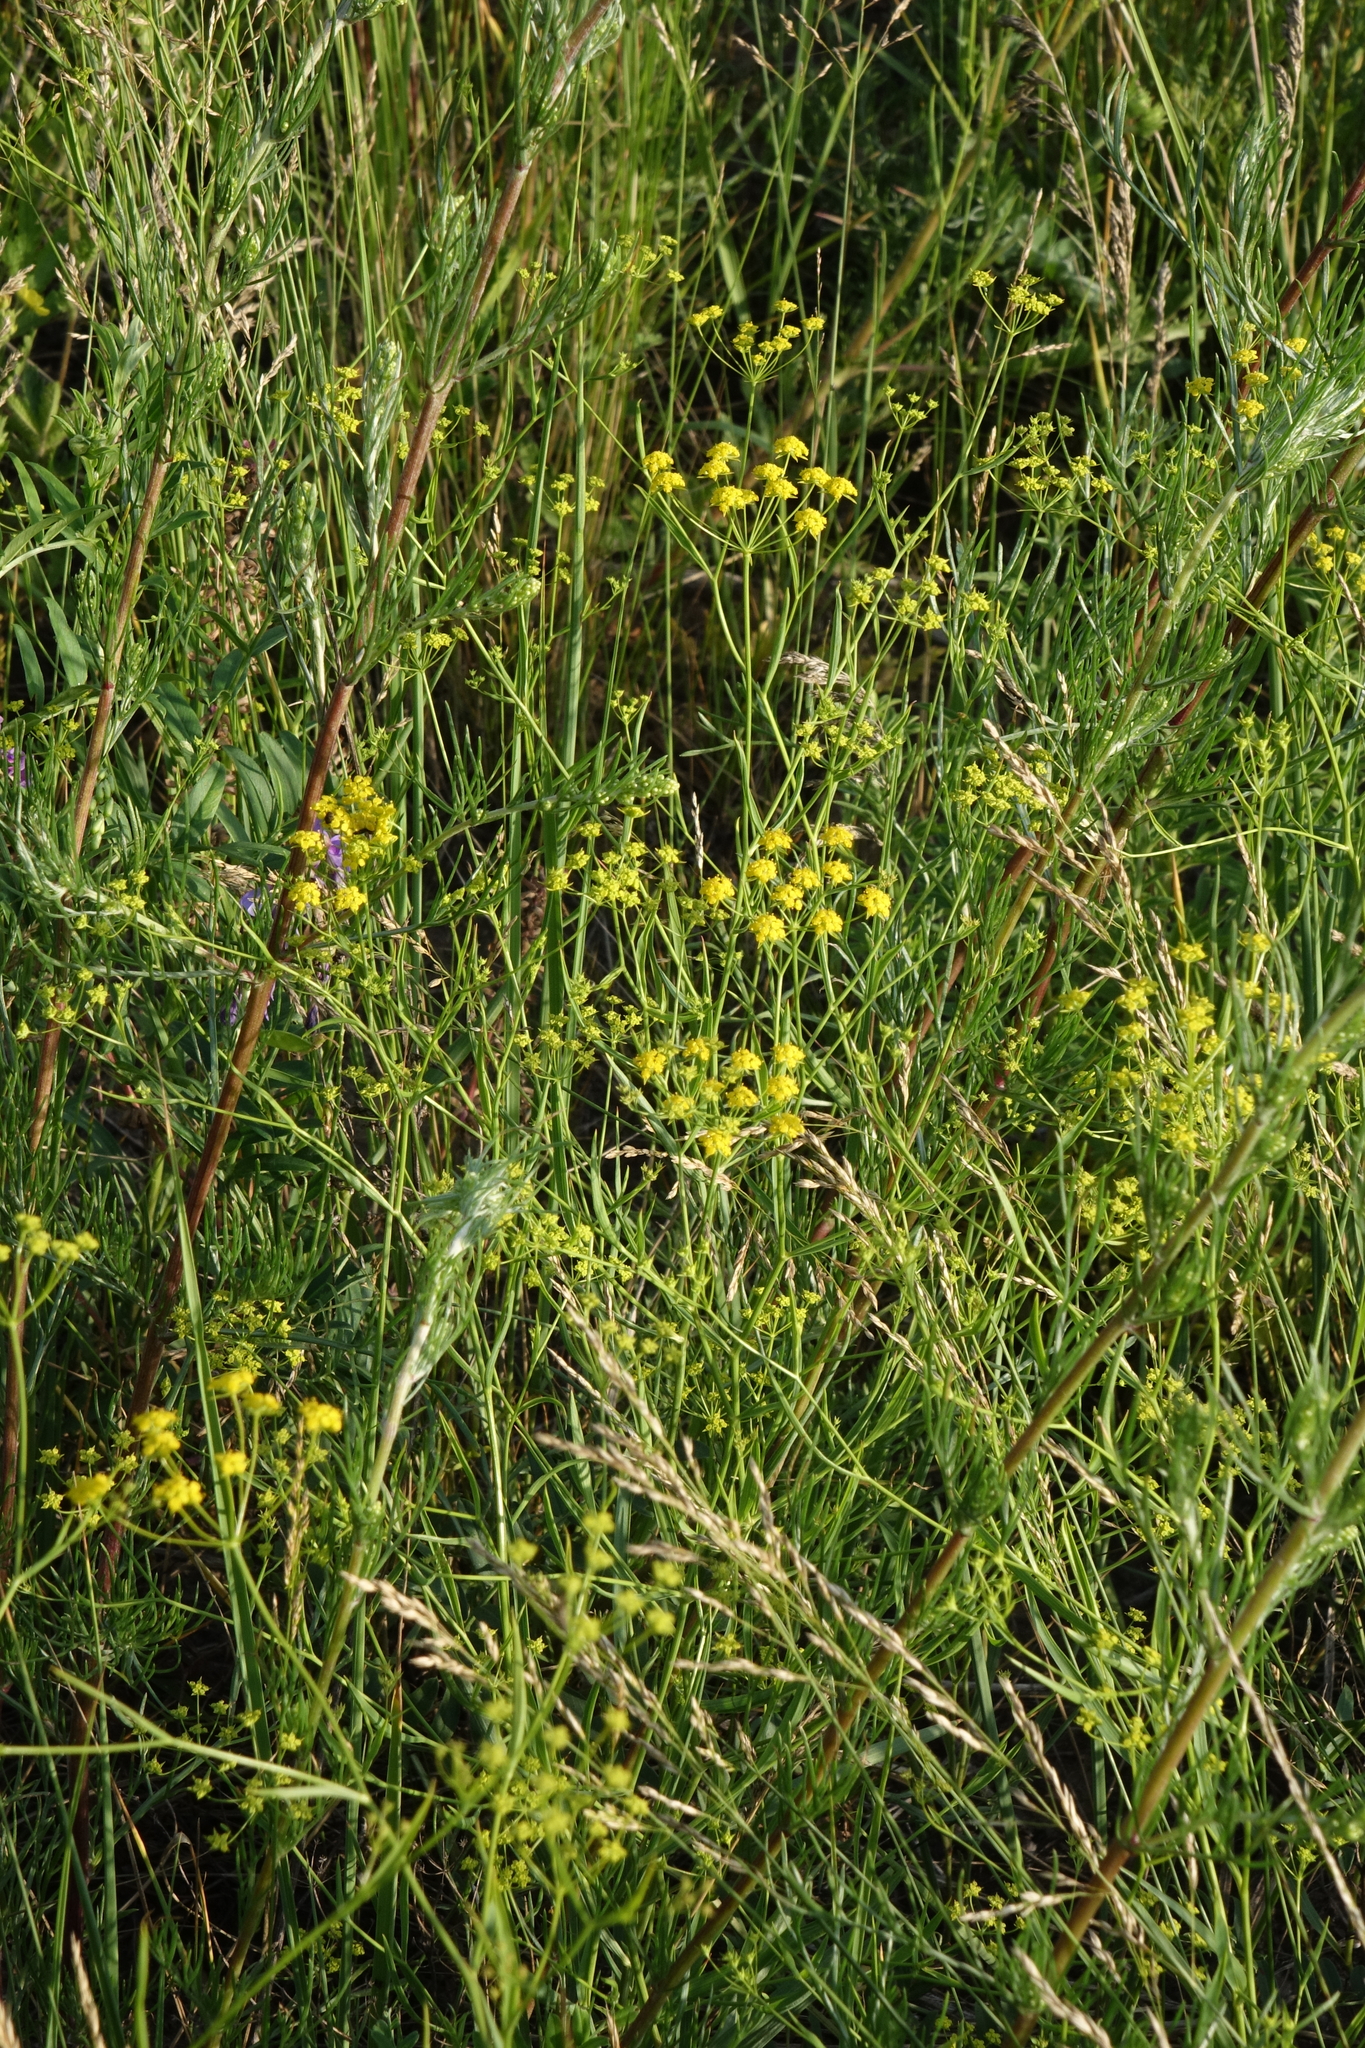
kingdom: Plantae
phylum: Tracheophyta
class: Magnoliopsida
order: Apiales
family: Apiaceae
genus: Bupleurum
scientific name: Bupleurum scorzonerifolium
